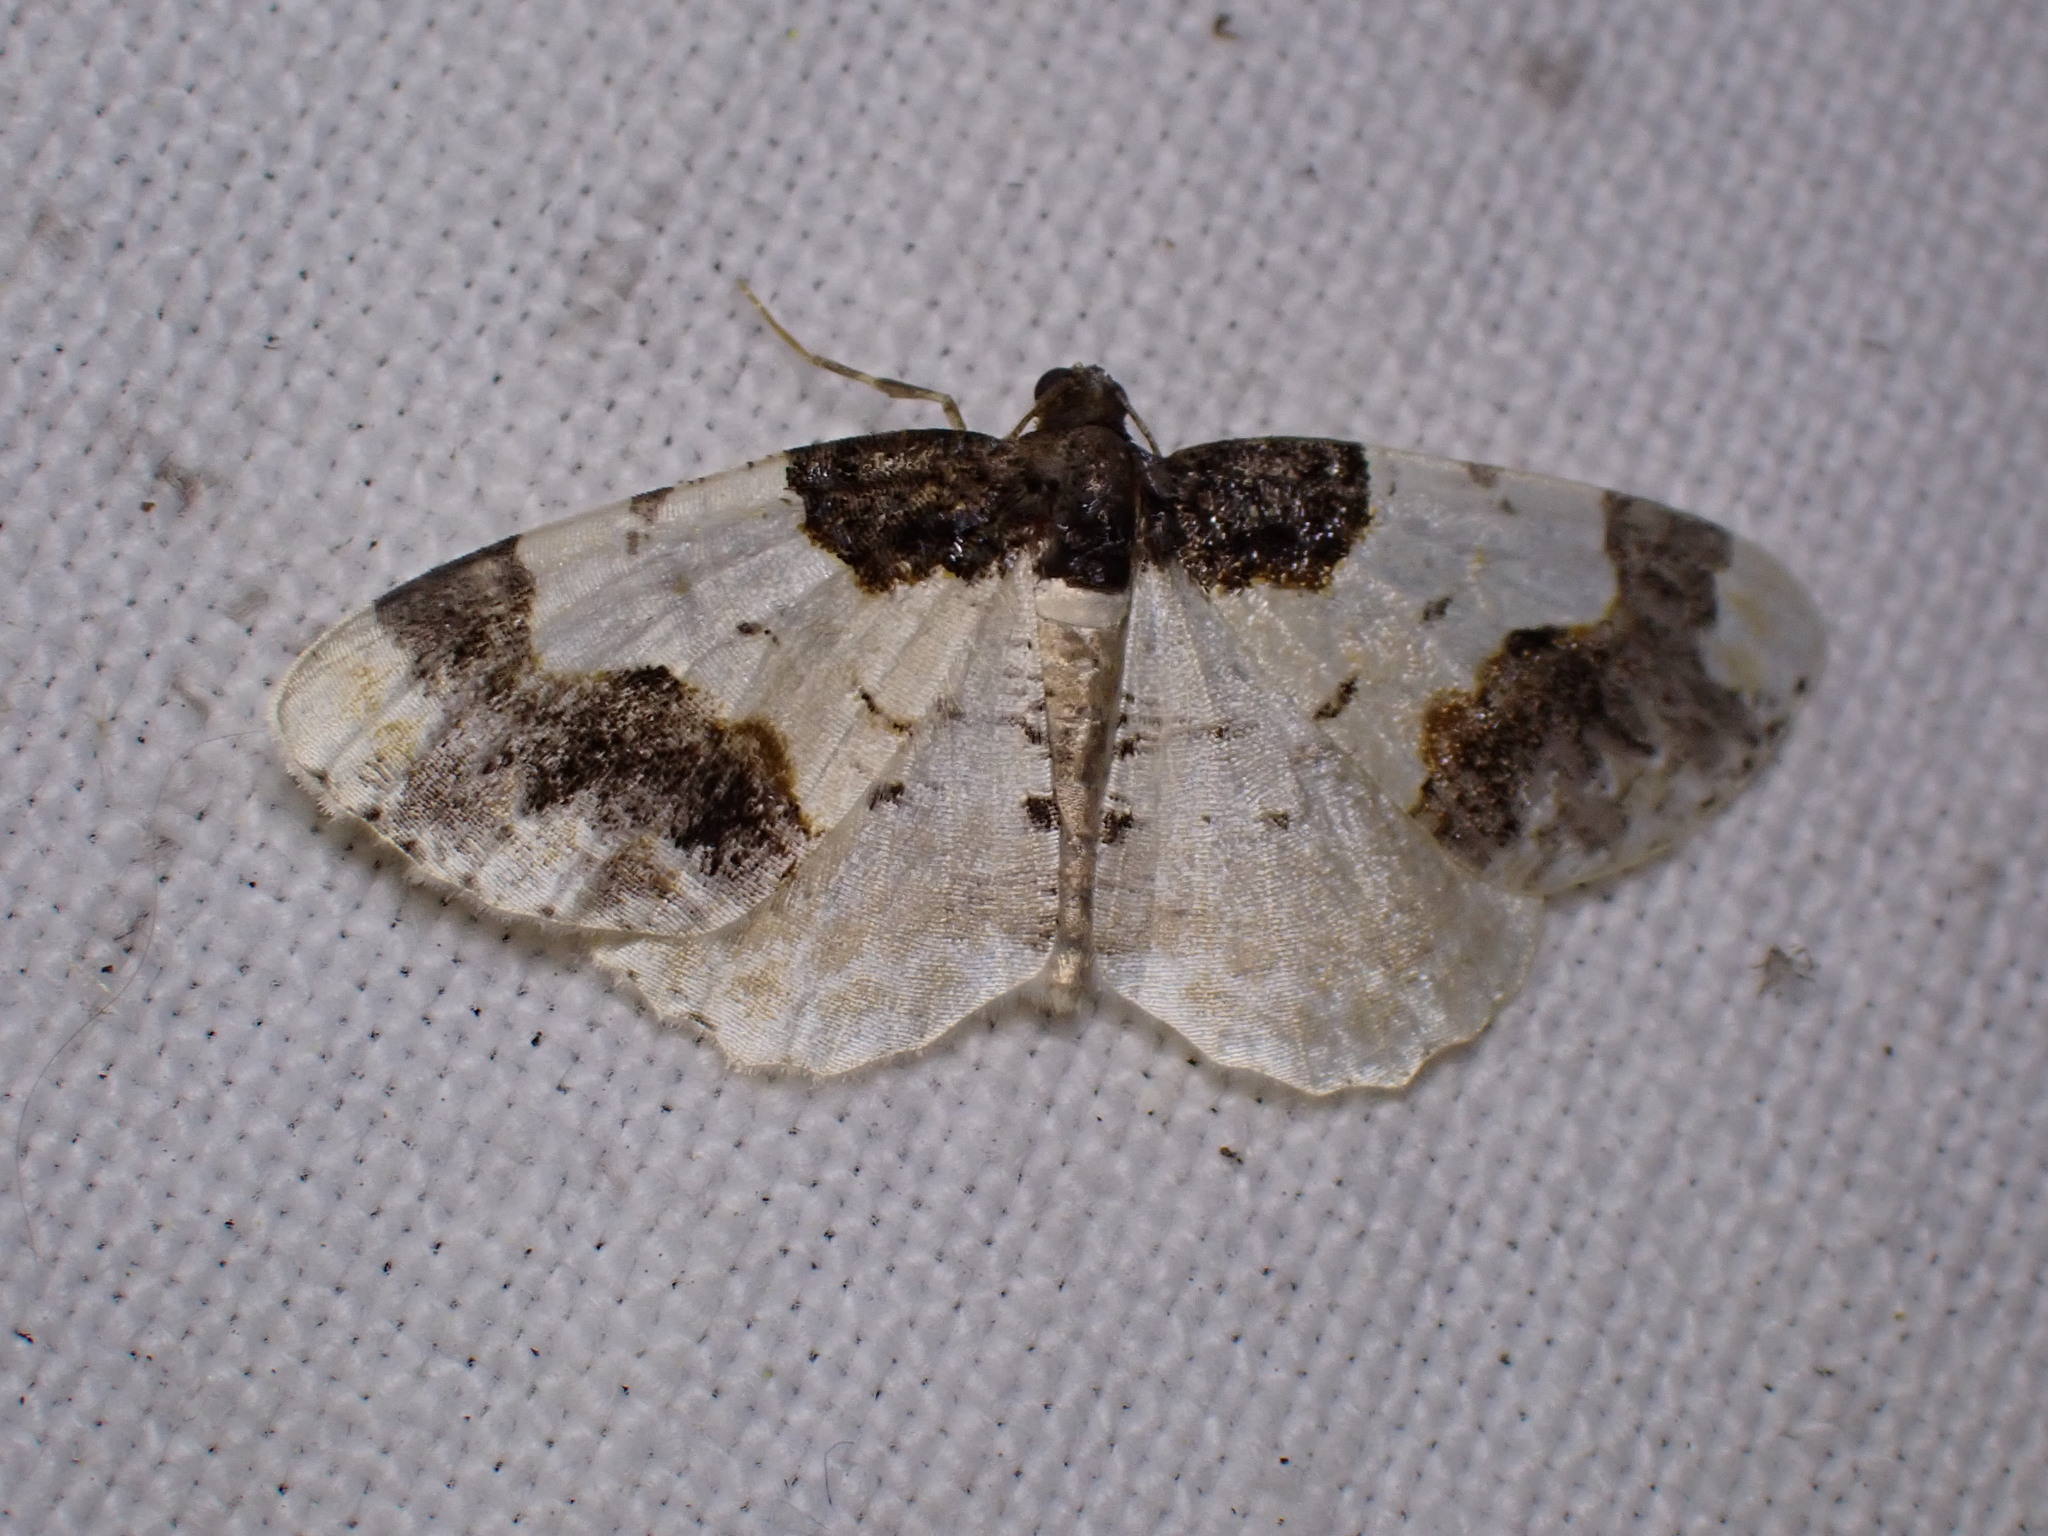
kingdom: Animalia
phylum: Arthropoda
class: Insecta
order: Lepidoptera
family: Geometridae
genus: Ligdia
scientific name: Ligdia adustata
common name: Scorched carpet
